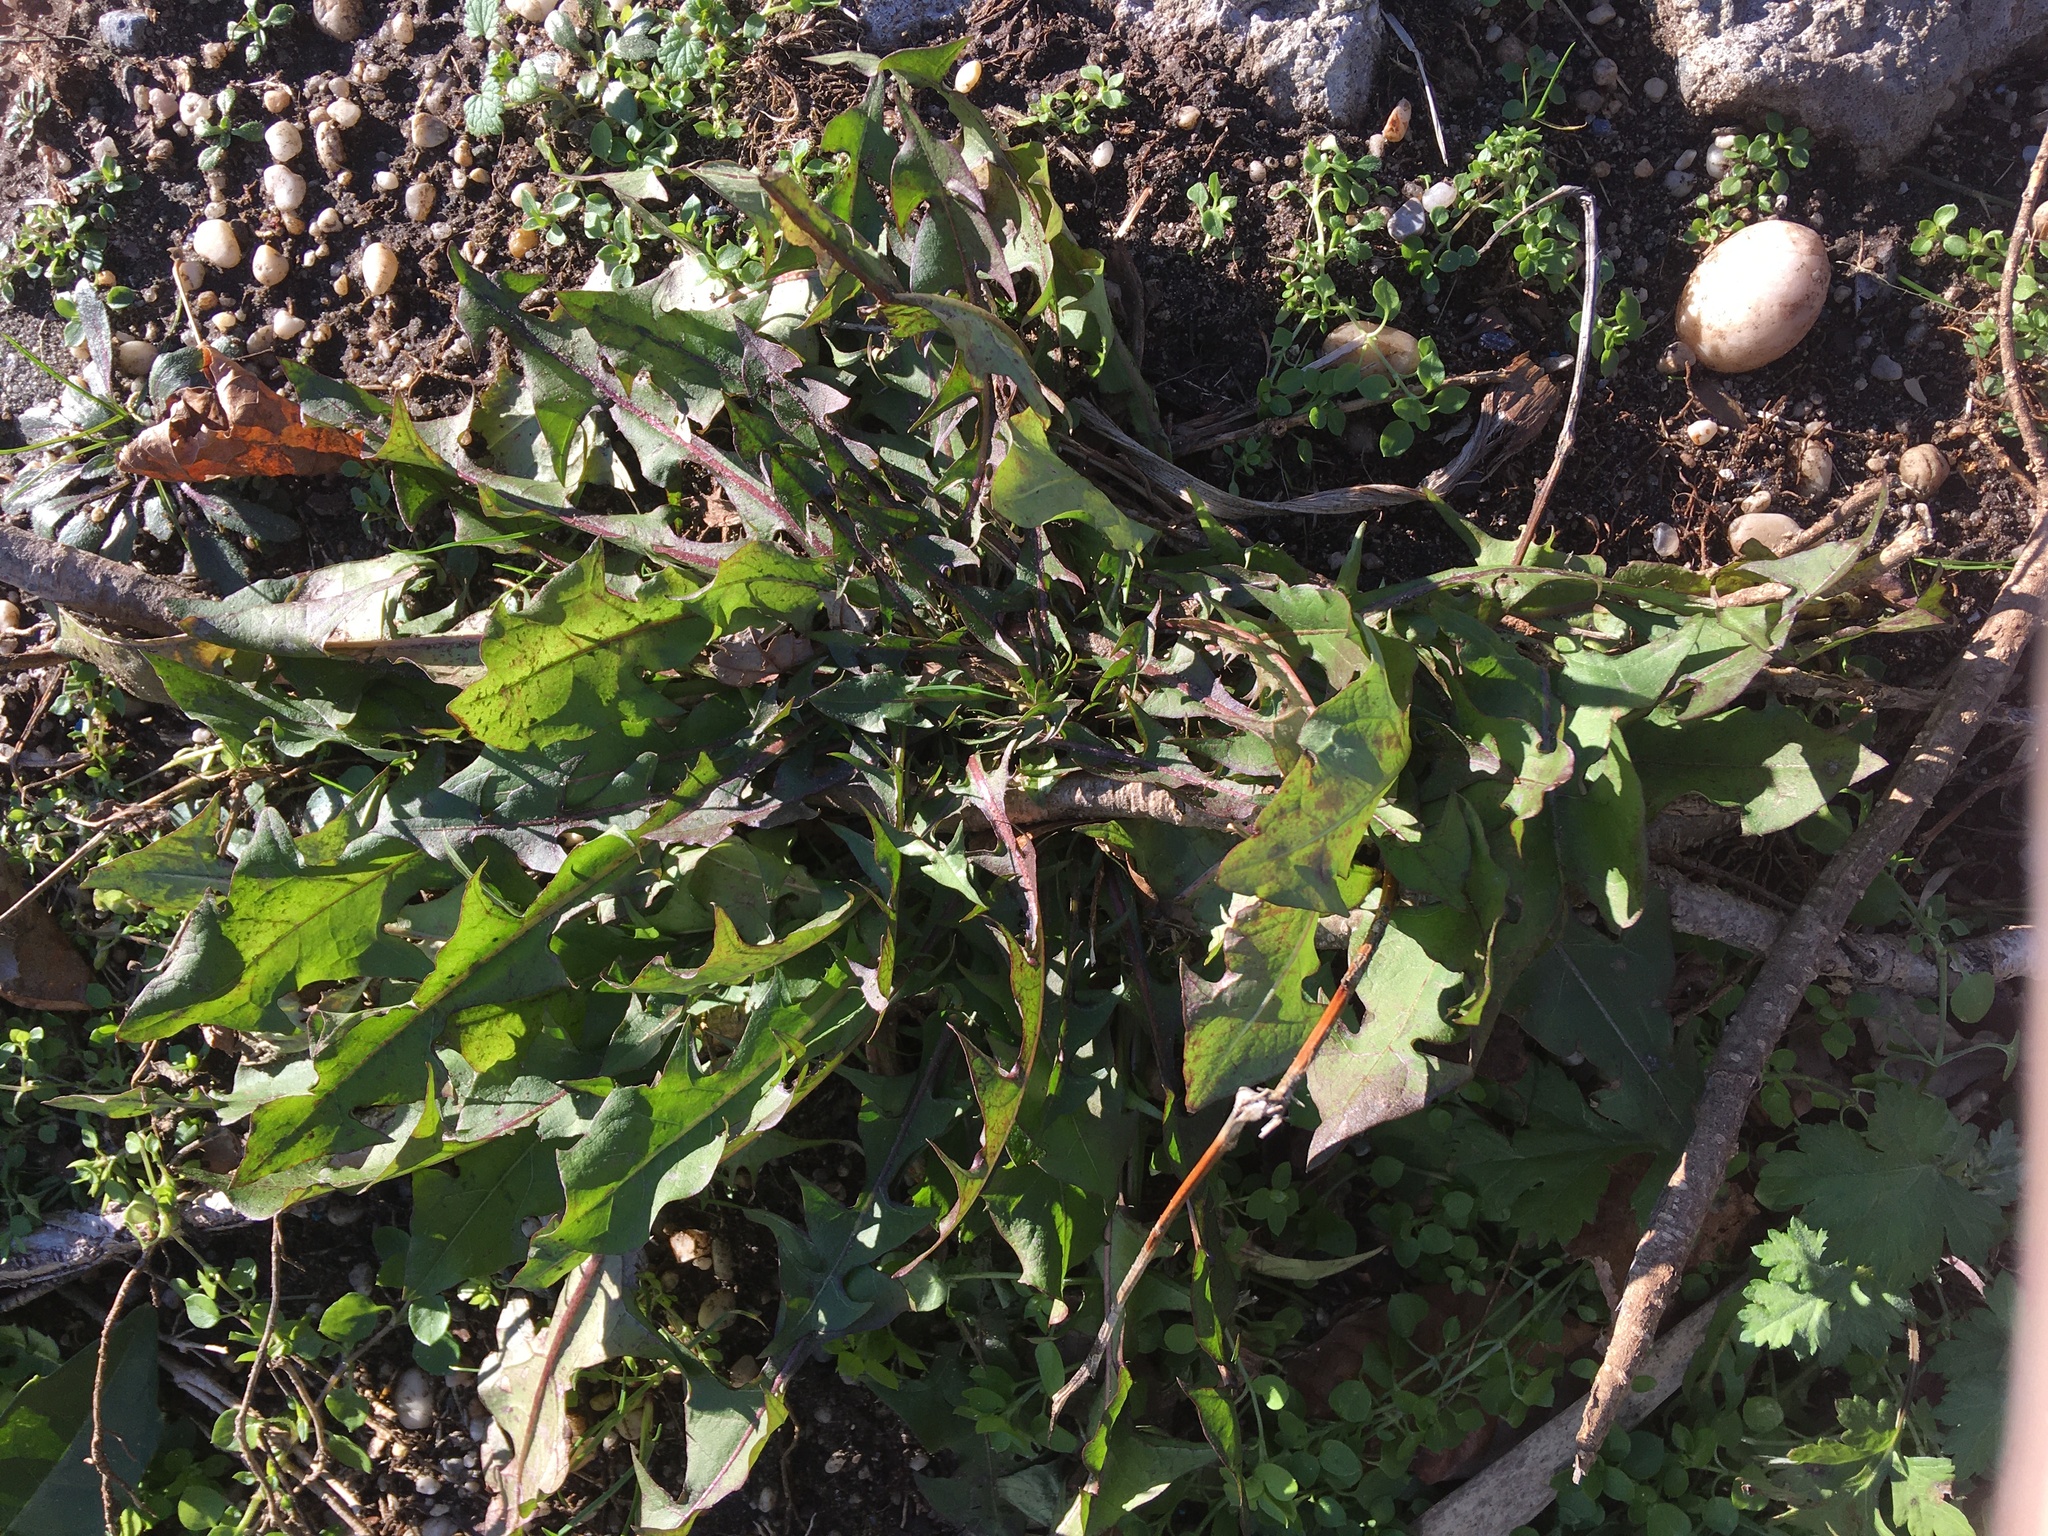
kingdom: Plantae
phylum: Tracheophyta
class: Magnoliopsida
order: Asterales
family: Asteraceae
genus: Taraxacum
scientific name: Taraxacum officinale
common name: Common dandelion
